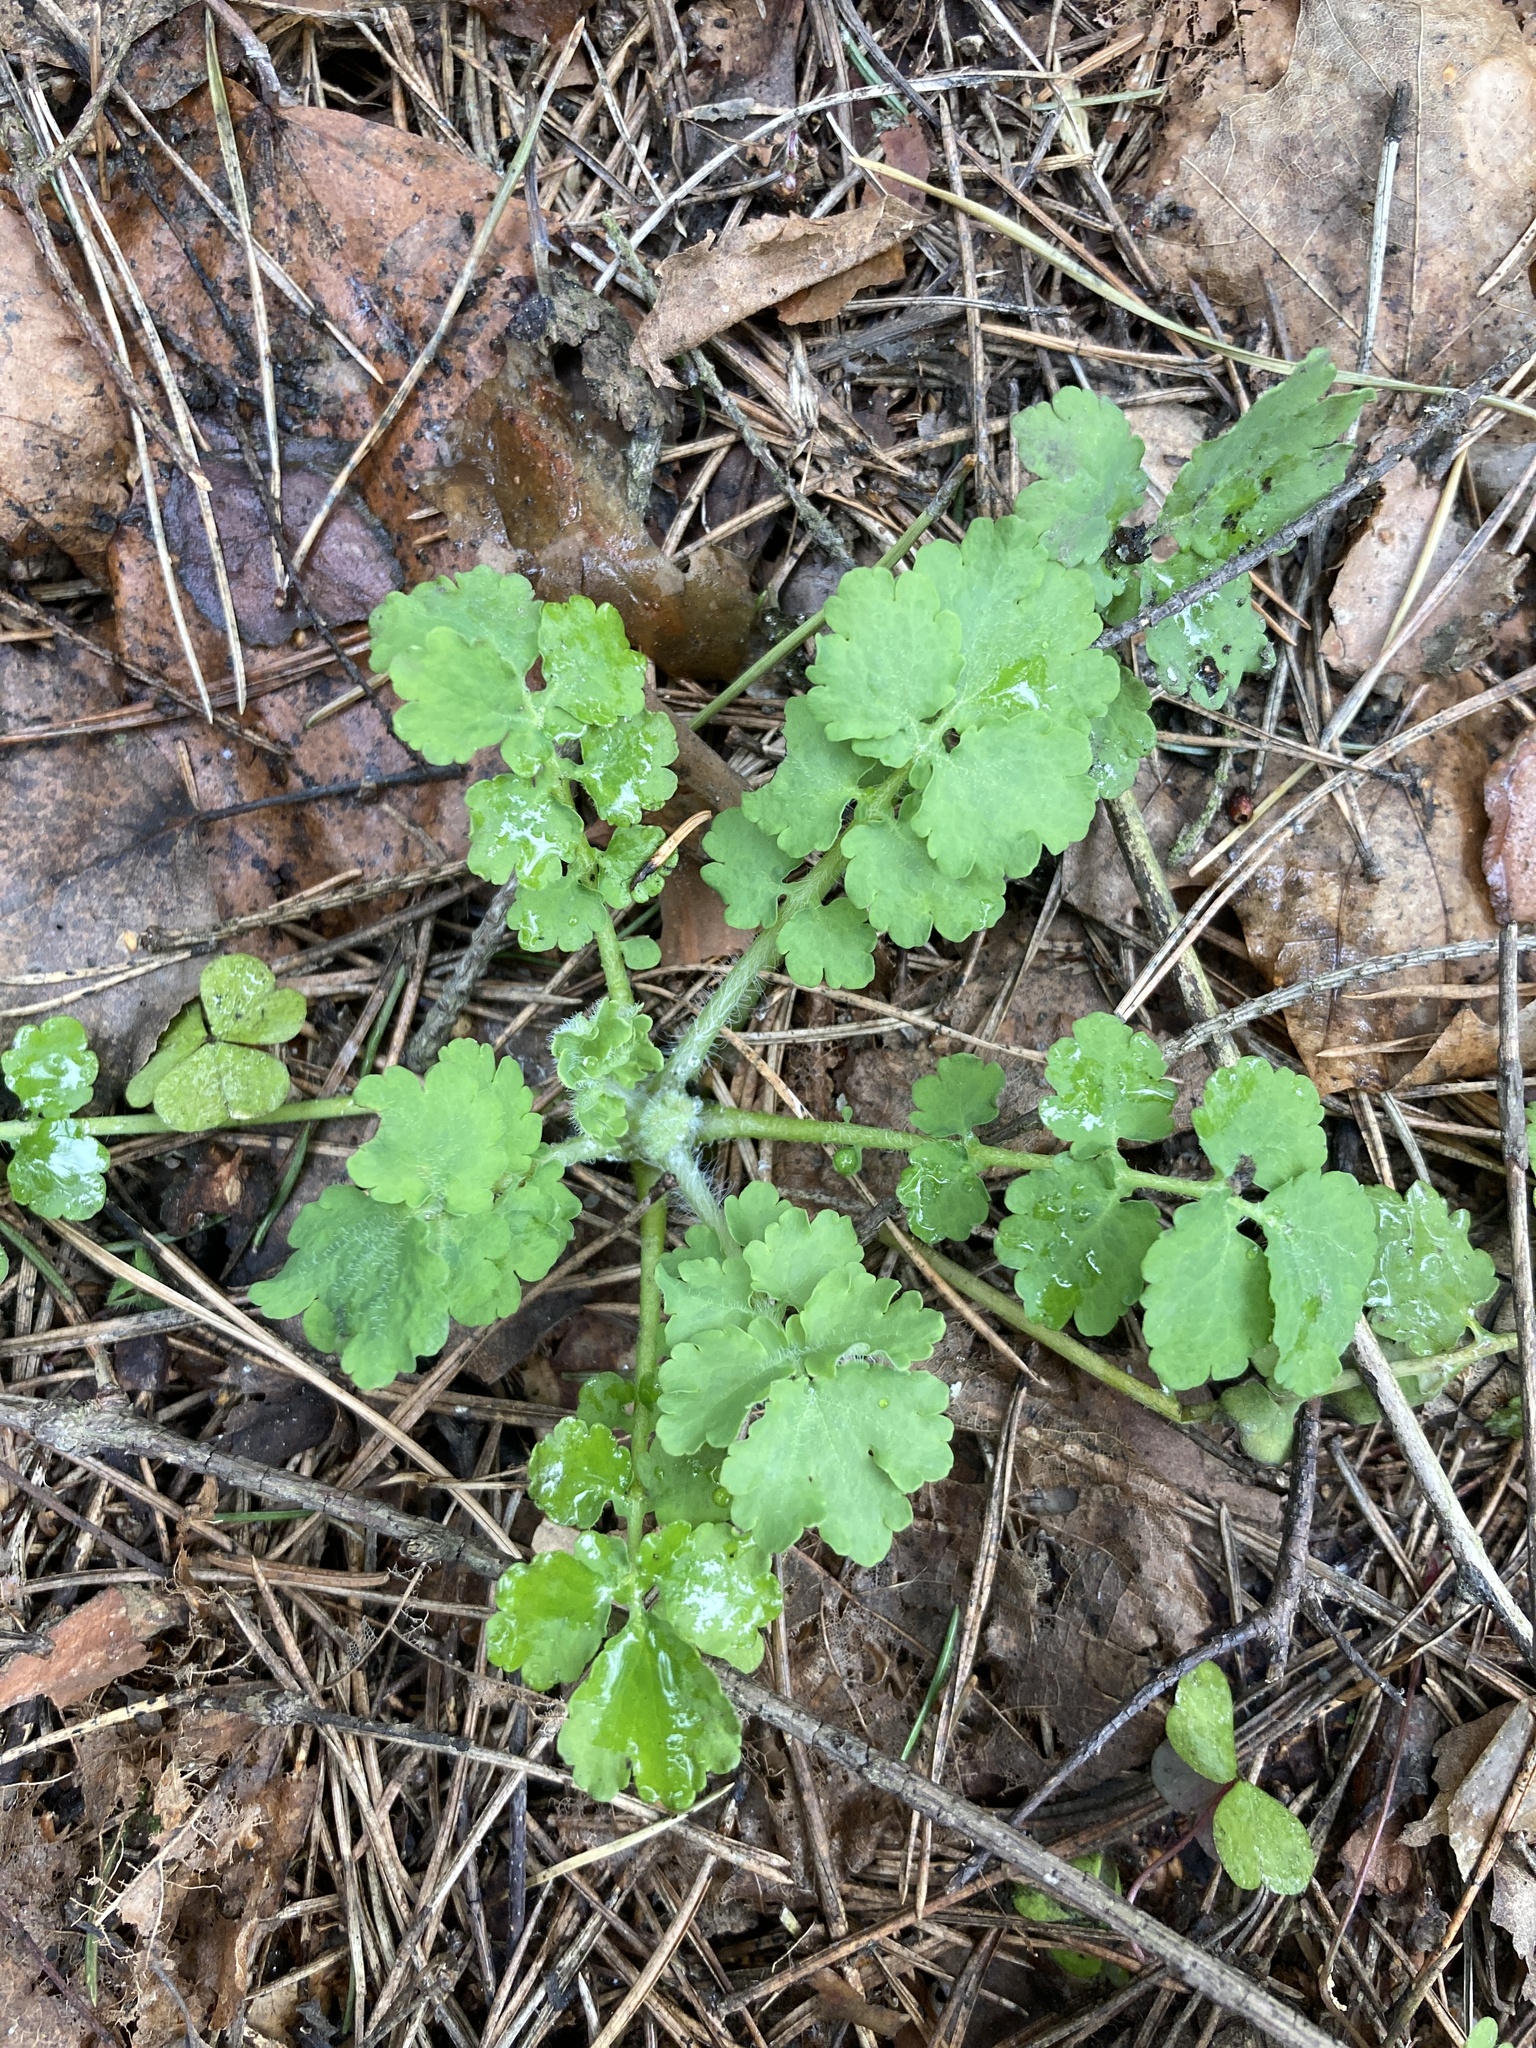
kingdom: Plantae
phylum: Tracheophyta
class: Magnoliopsida
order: Ranunculales
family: Papaveraceae
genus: Chelidonium
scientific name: Chelidonium majus
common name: Greater celandine
